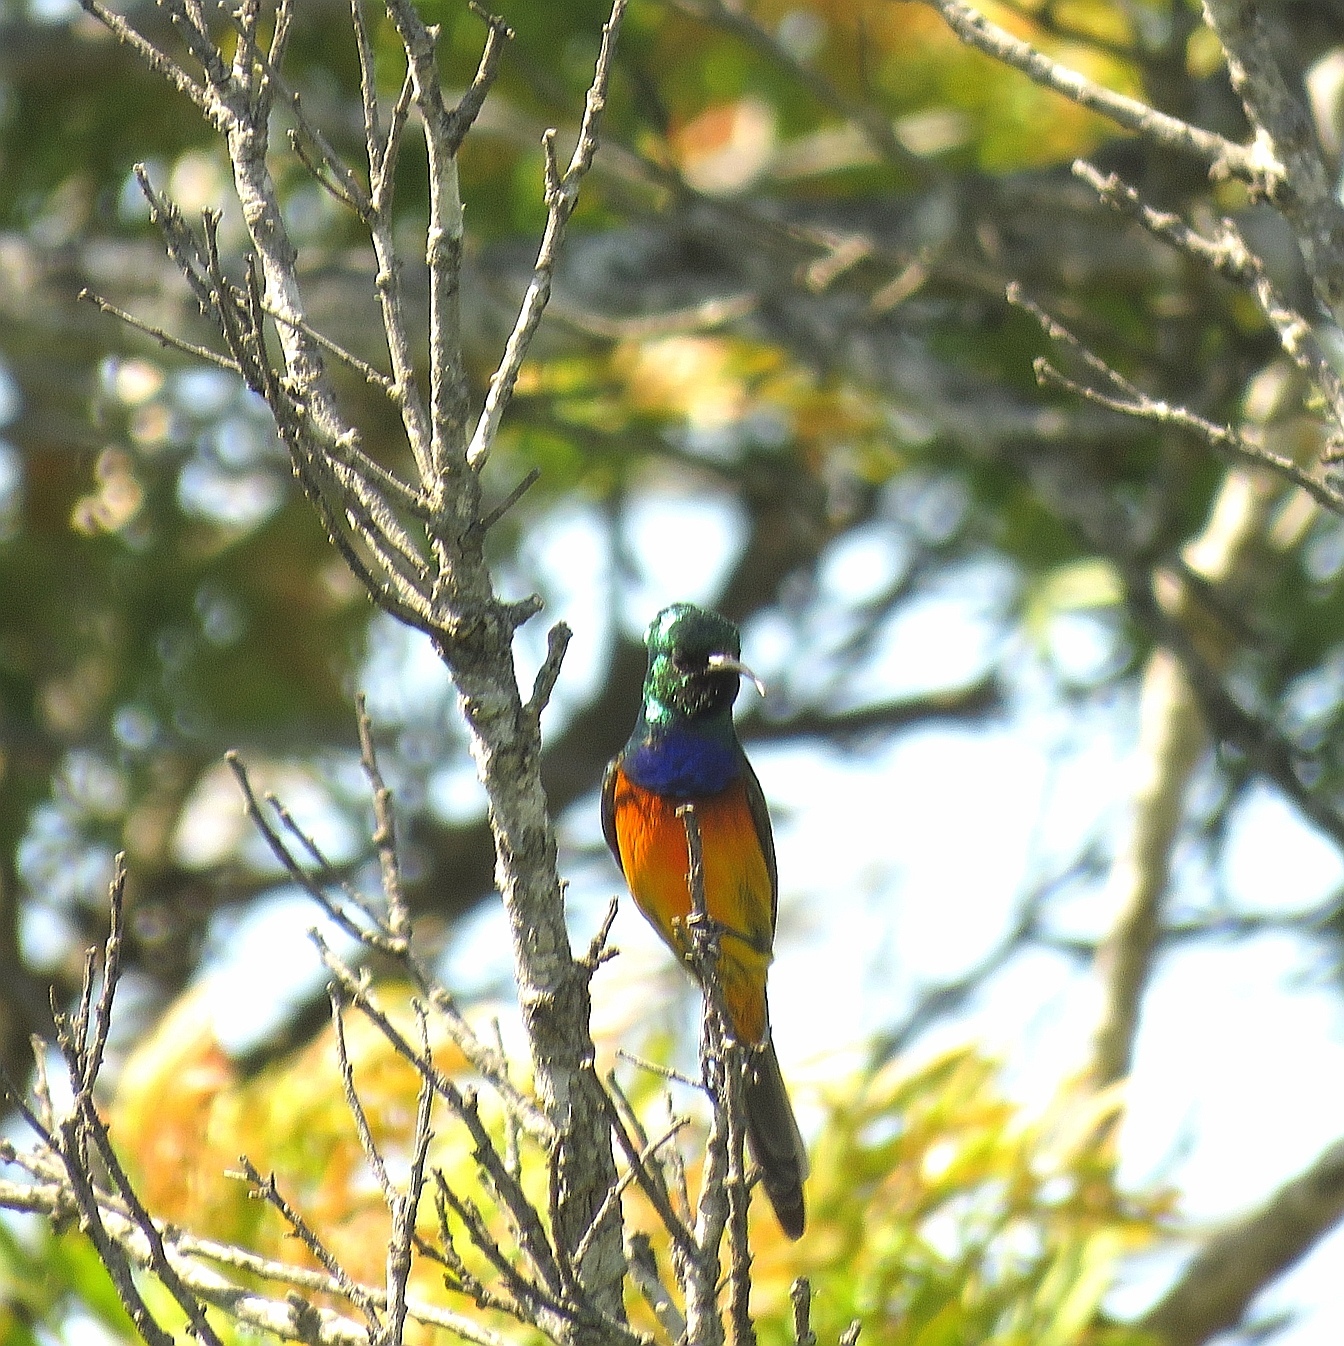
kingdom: Animalia
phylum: Chordata
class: Aves
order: Passeriformes
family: Nectariniidae
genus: Anthobaphes
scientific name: Anthobaphes violacea
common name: Orange-breasted sunbird
